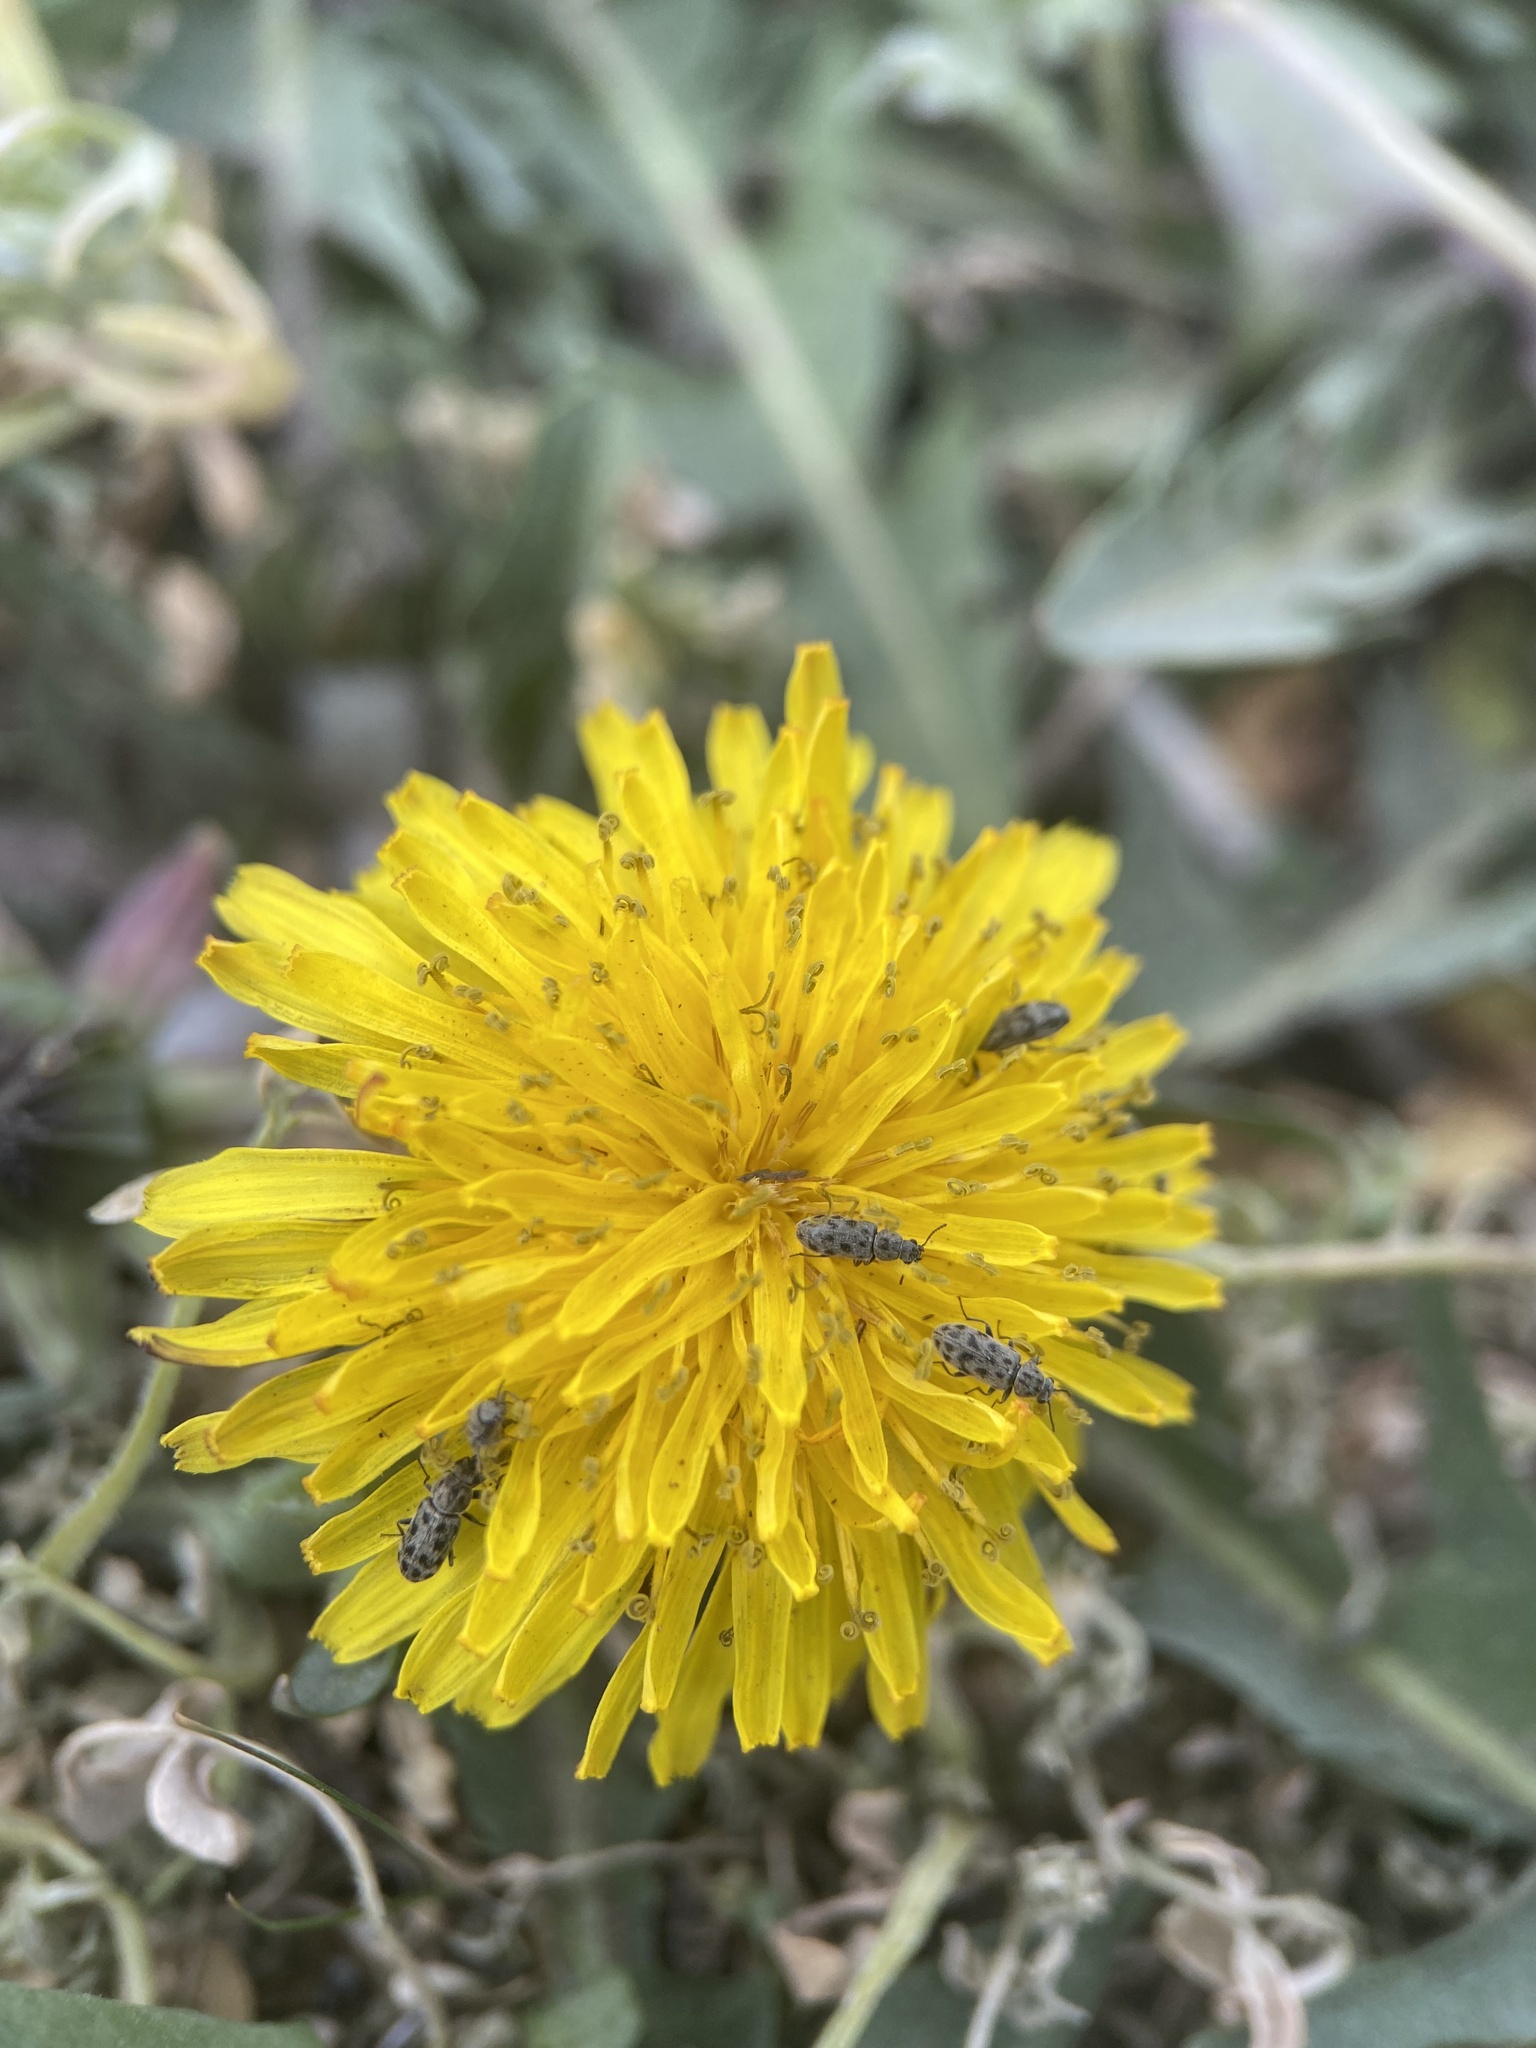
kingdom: Animalia
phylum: Arthropoda
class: Insecta
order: Coleoptera
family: Melyridae
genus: Listrus
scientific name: Listrus
